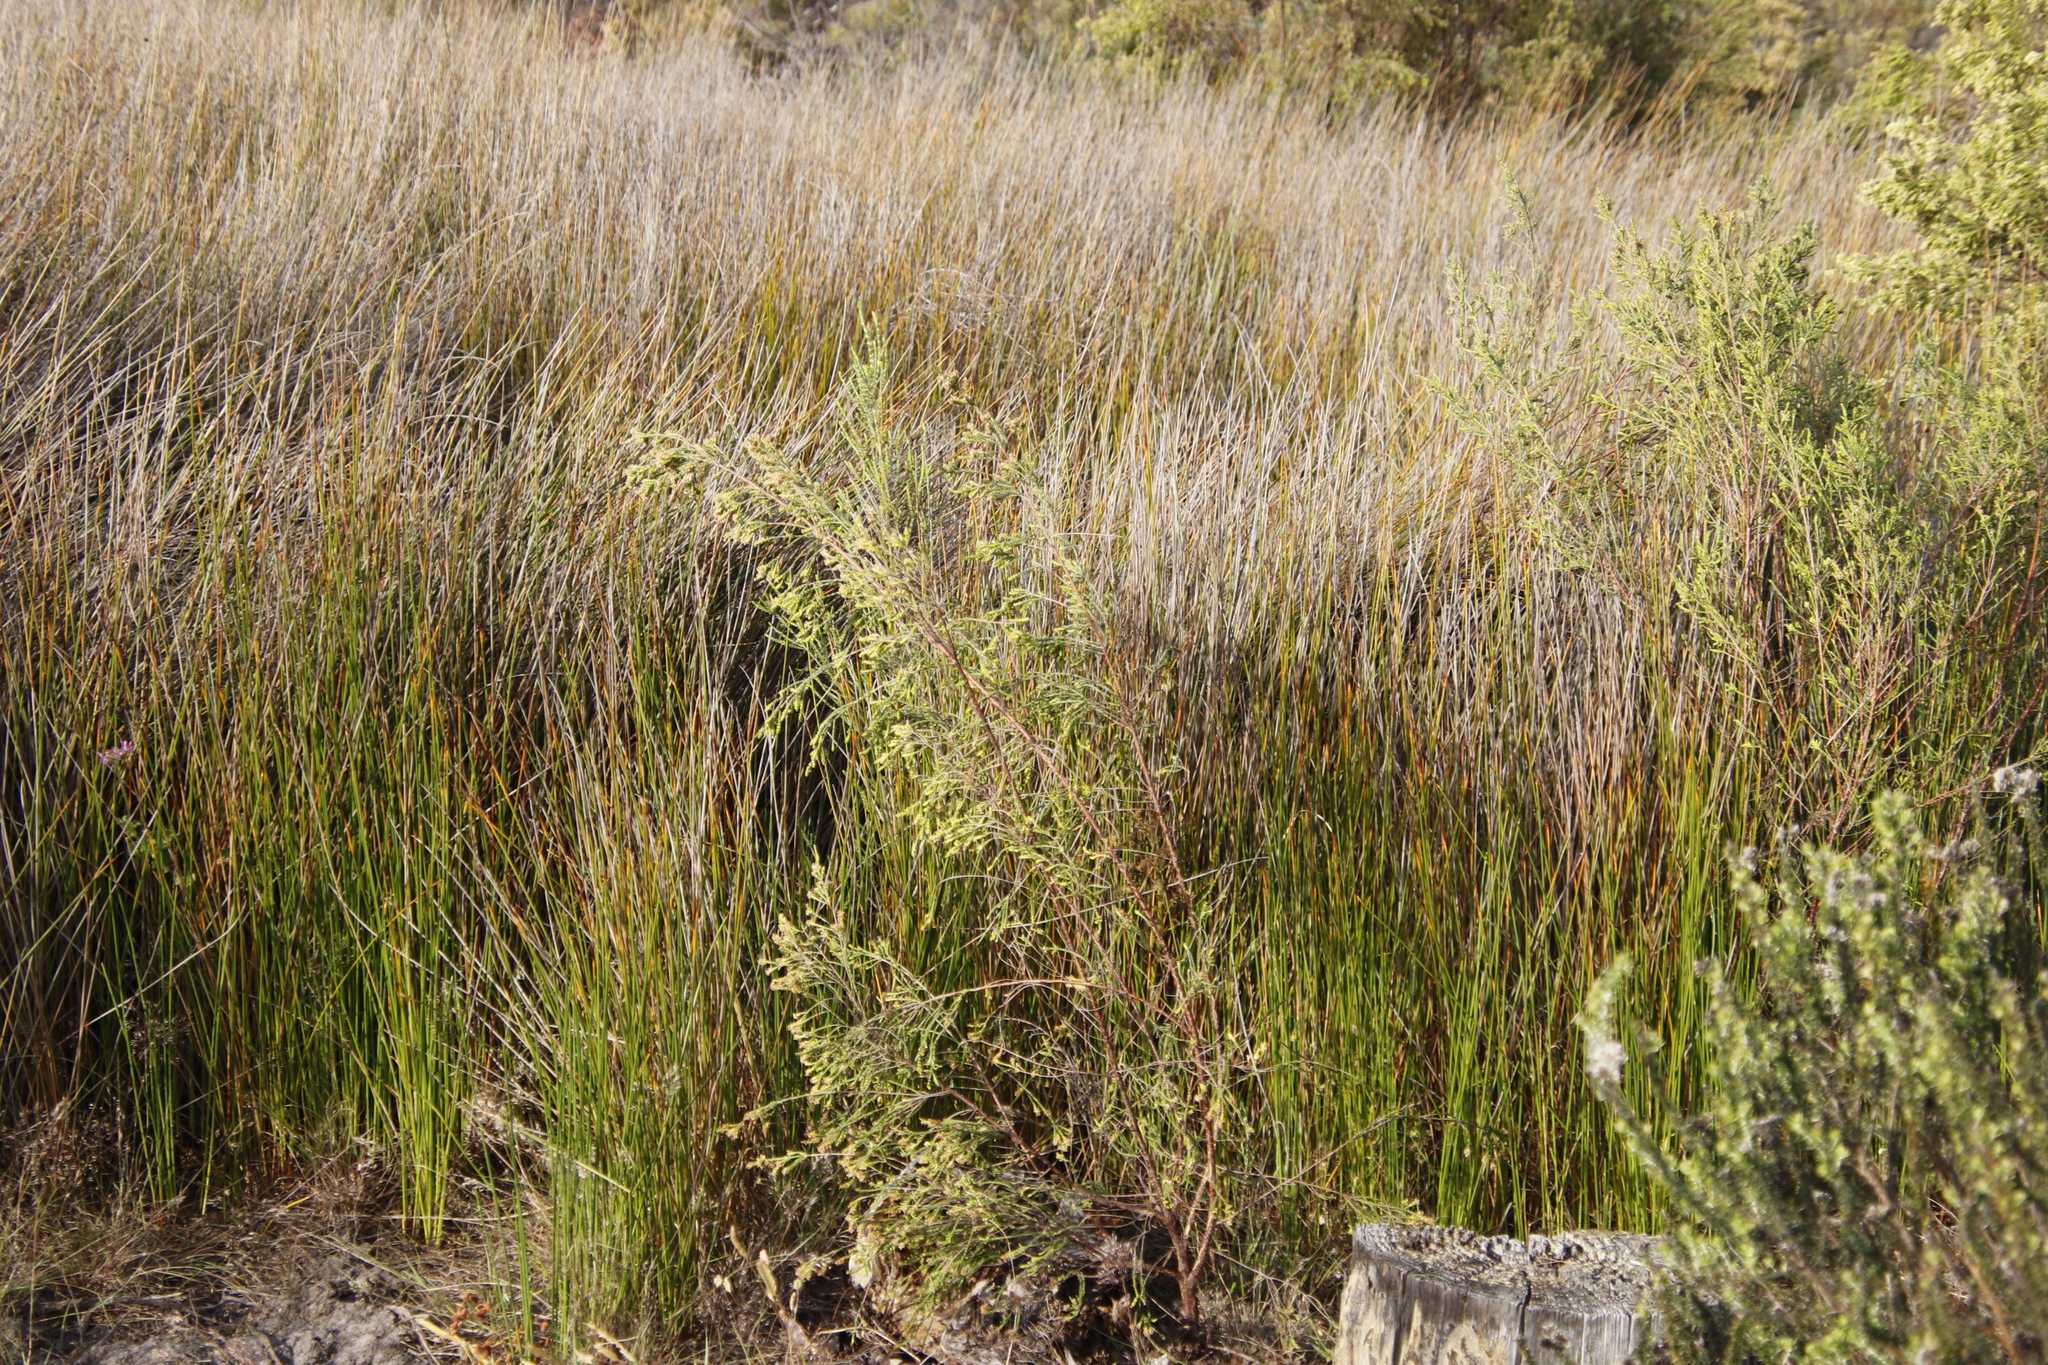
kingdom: Plantae
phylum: Tracheophyta
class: Magnoliopsida
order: Malvales
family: Thymelaeaceae
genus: Passerina
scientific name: Passerina corymbosa
